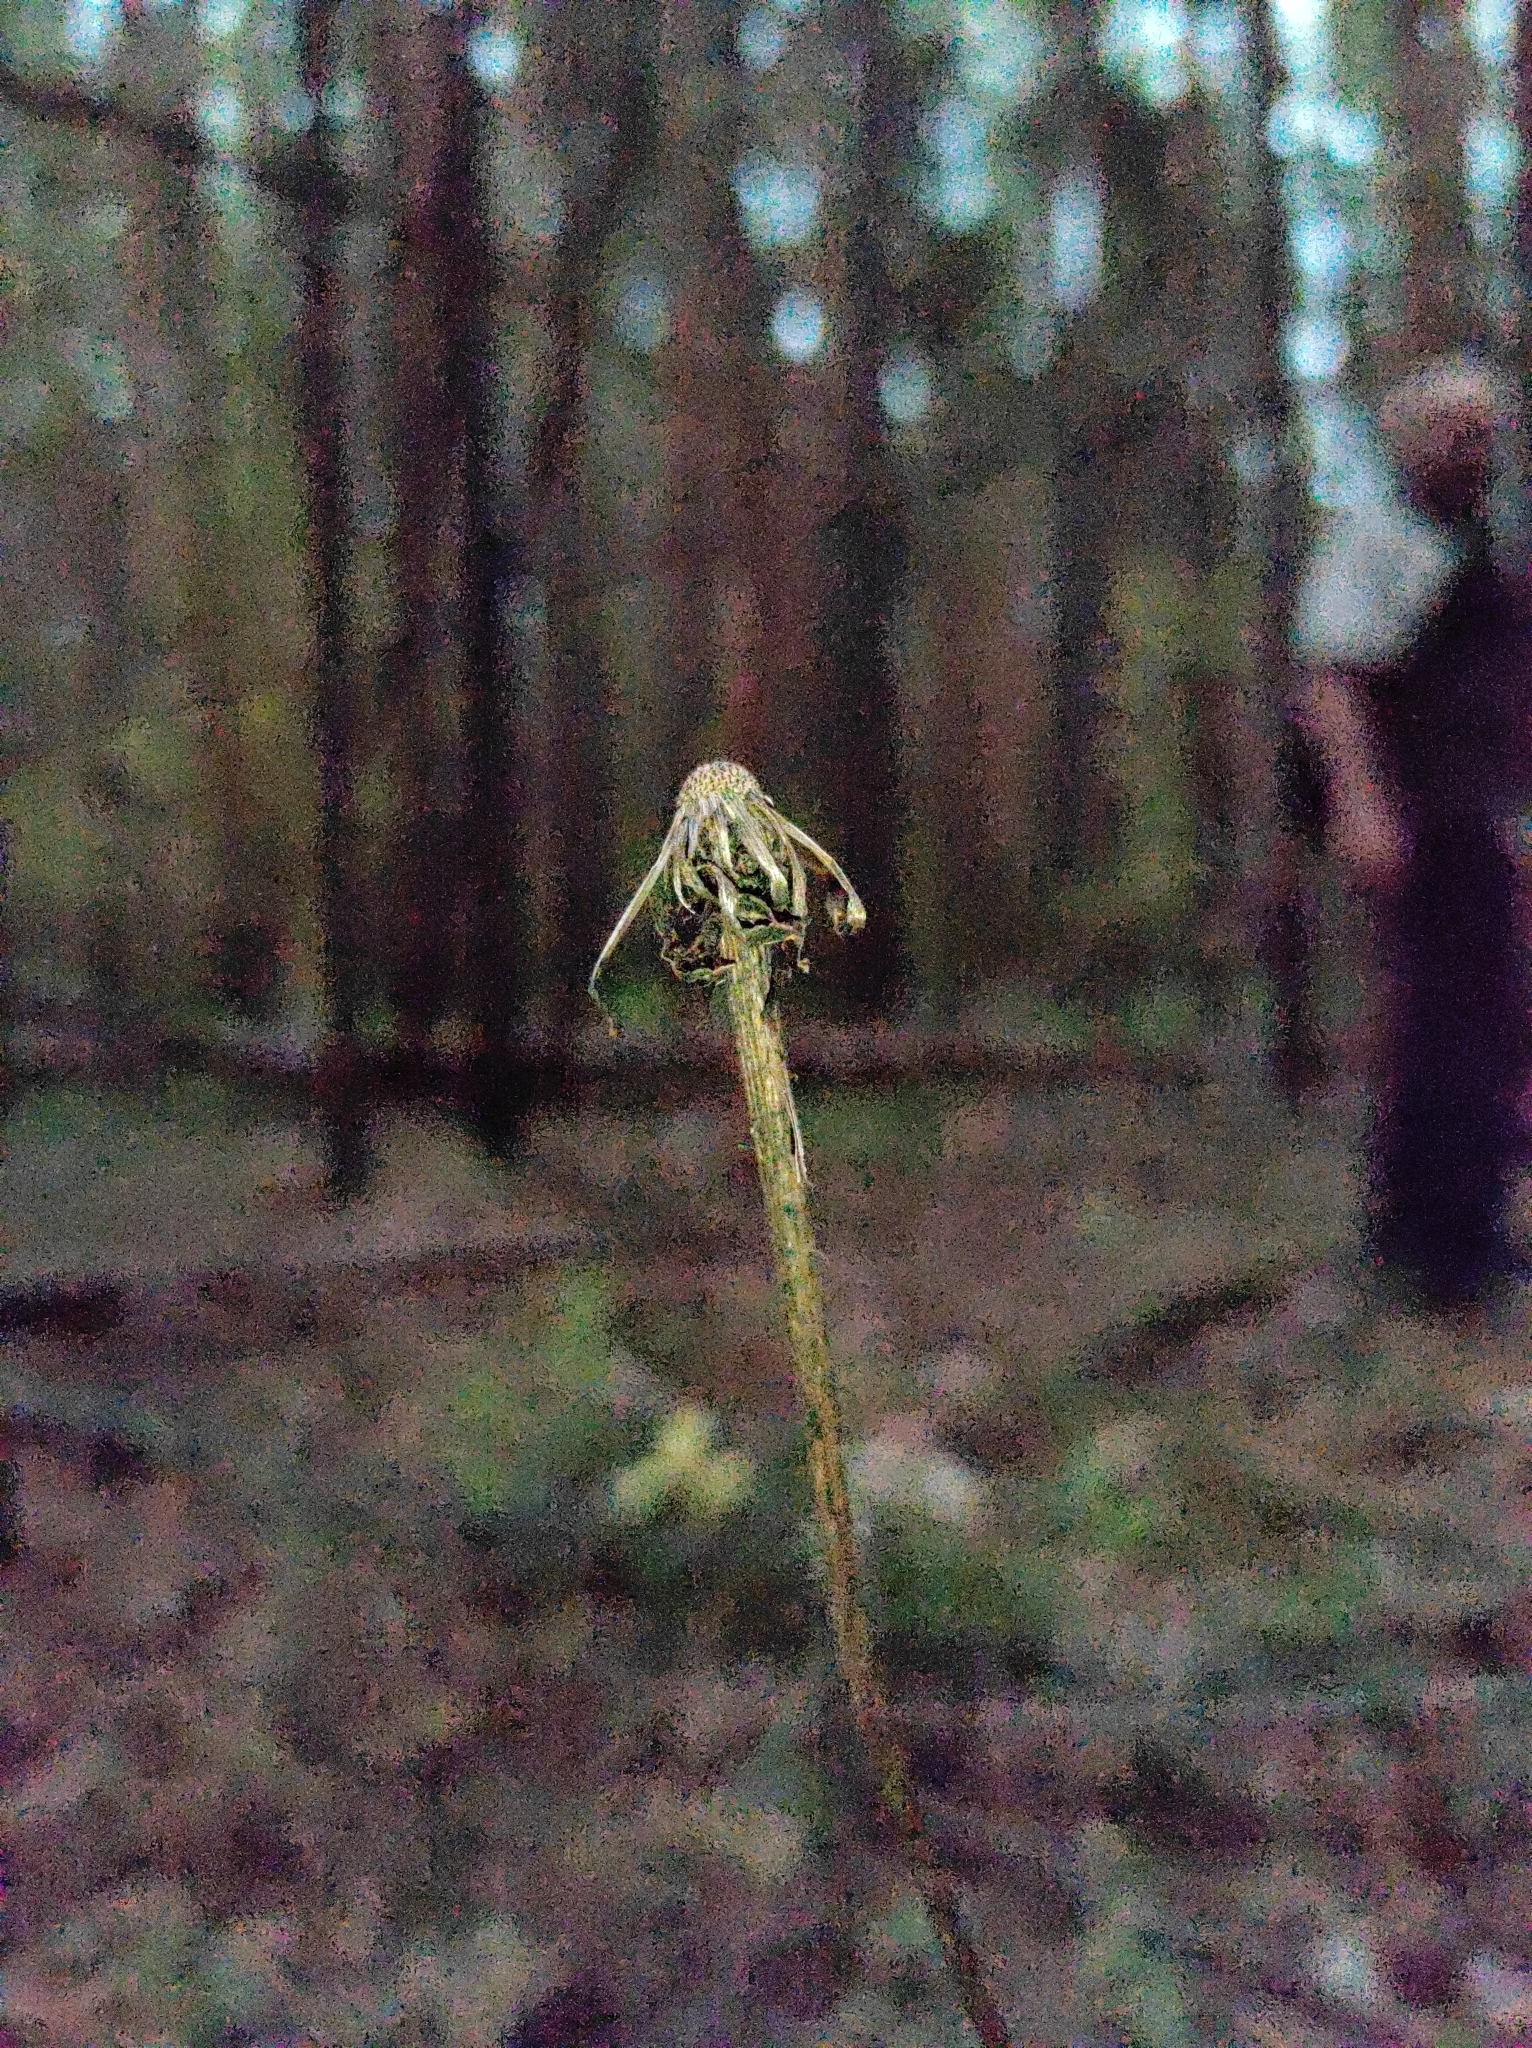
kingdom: Plantae
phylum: Tracheophyta
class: Magnoliopsida
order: Asterales
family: Asteraceae
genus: Trommsdorffia
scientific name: Trommsdorffia maculata
